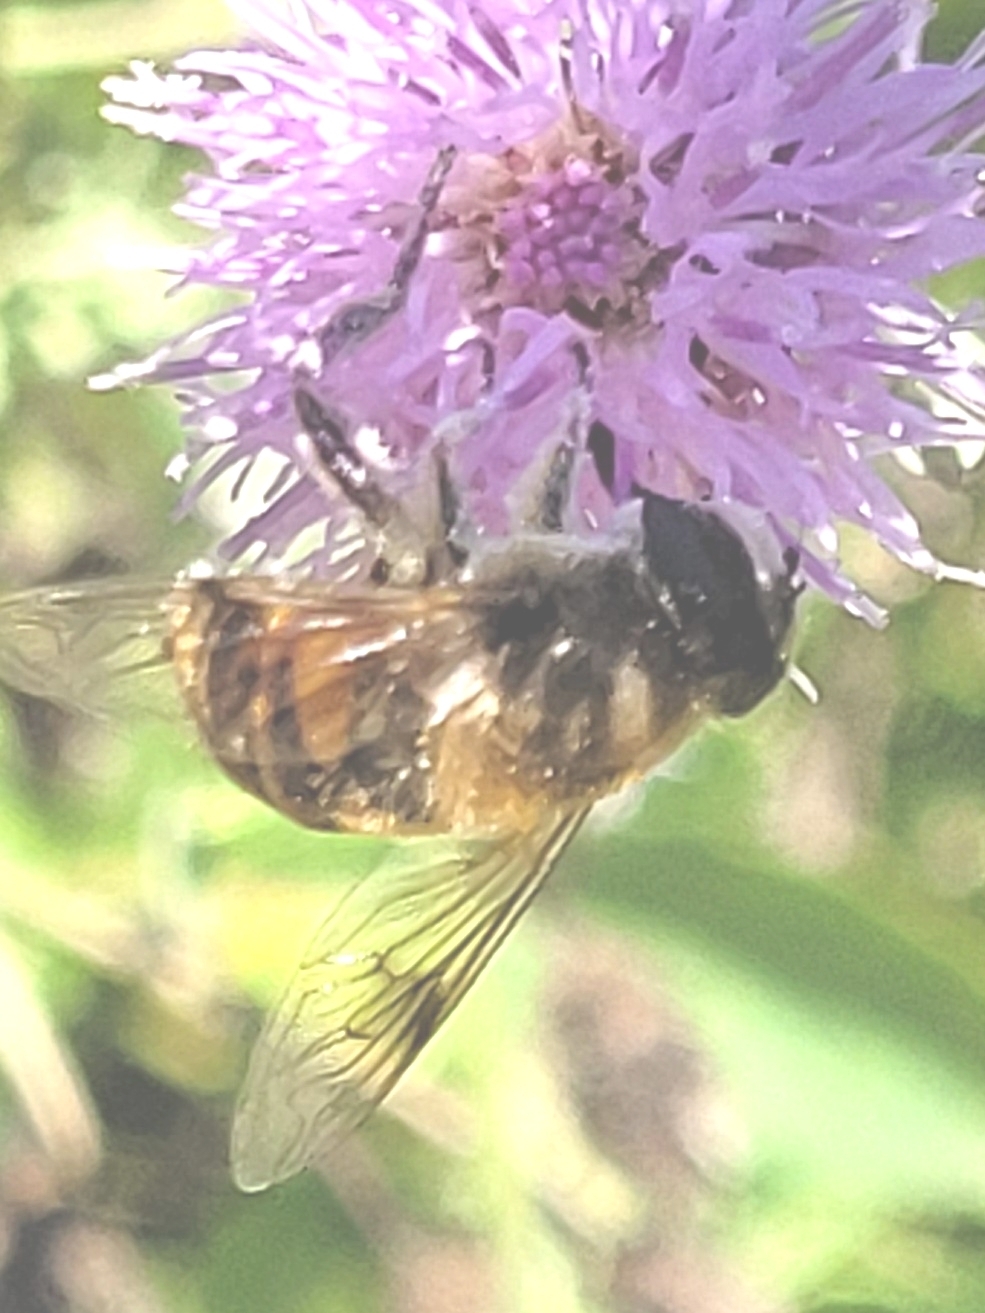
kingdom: Animalia
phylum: Arthropoda
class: Insecta
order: Diptera
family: Syrphidae
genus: Eristalis
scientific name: Eristalis tenax
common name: Drone fly
